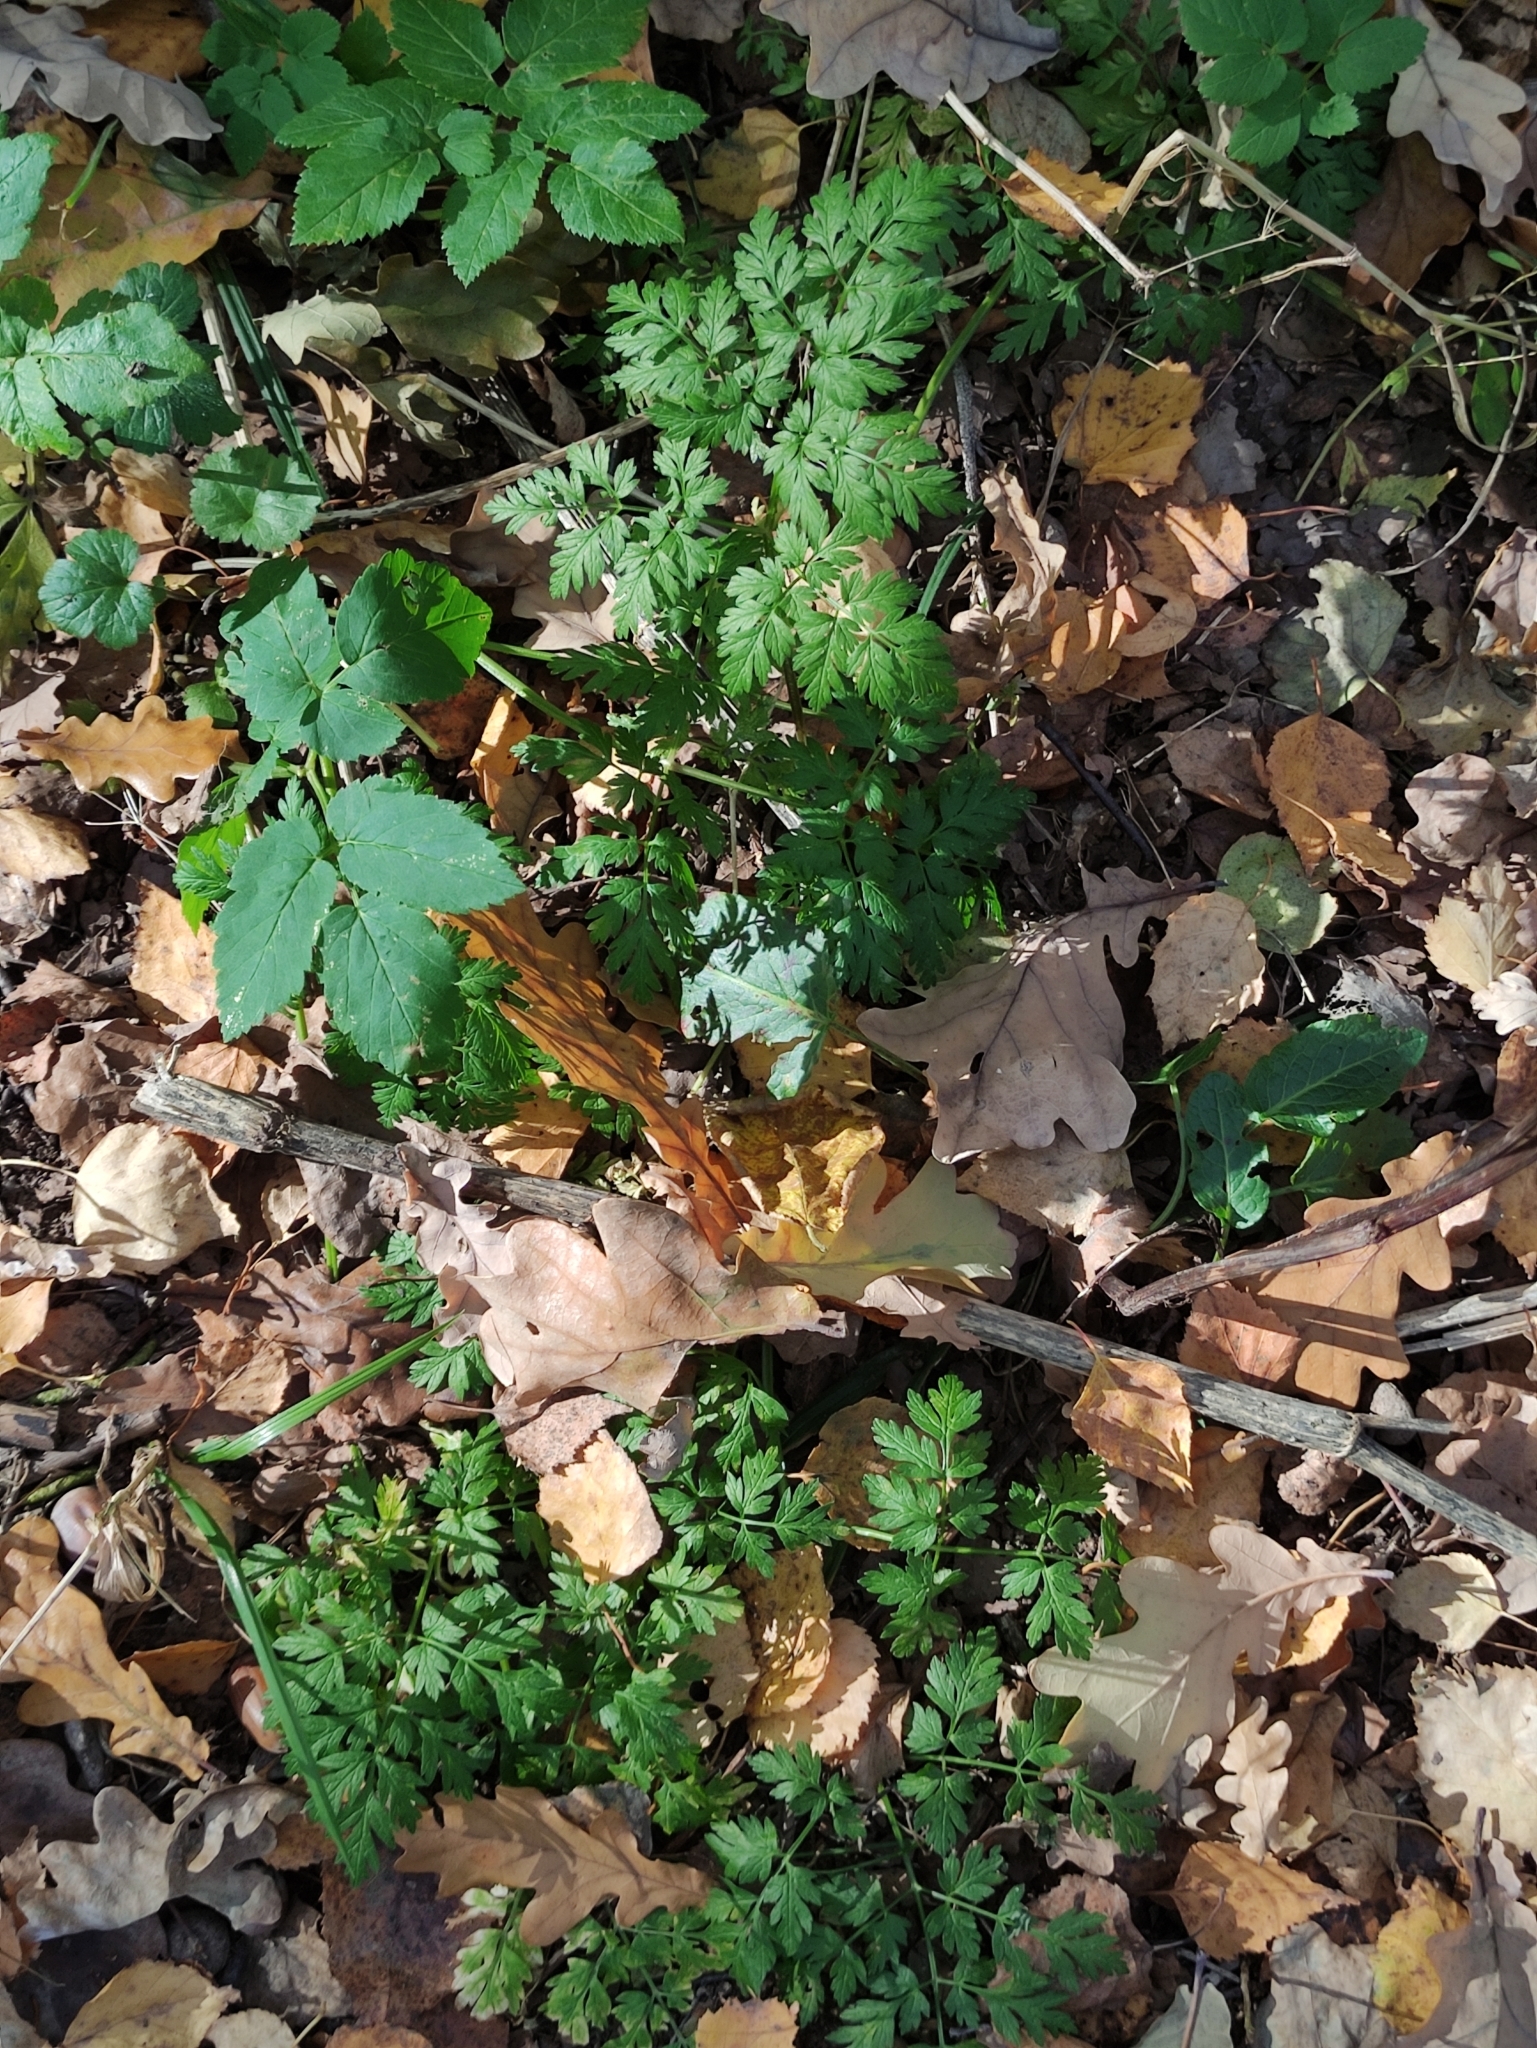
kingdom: Plantae
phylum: Tracheophyta
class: Magnoliopsida
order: Apiales
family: Apiaceae
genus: Anthriscus
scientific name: Anthriscus sylvestris
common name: Cow parsley
